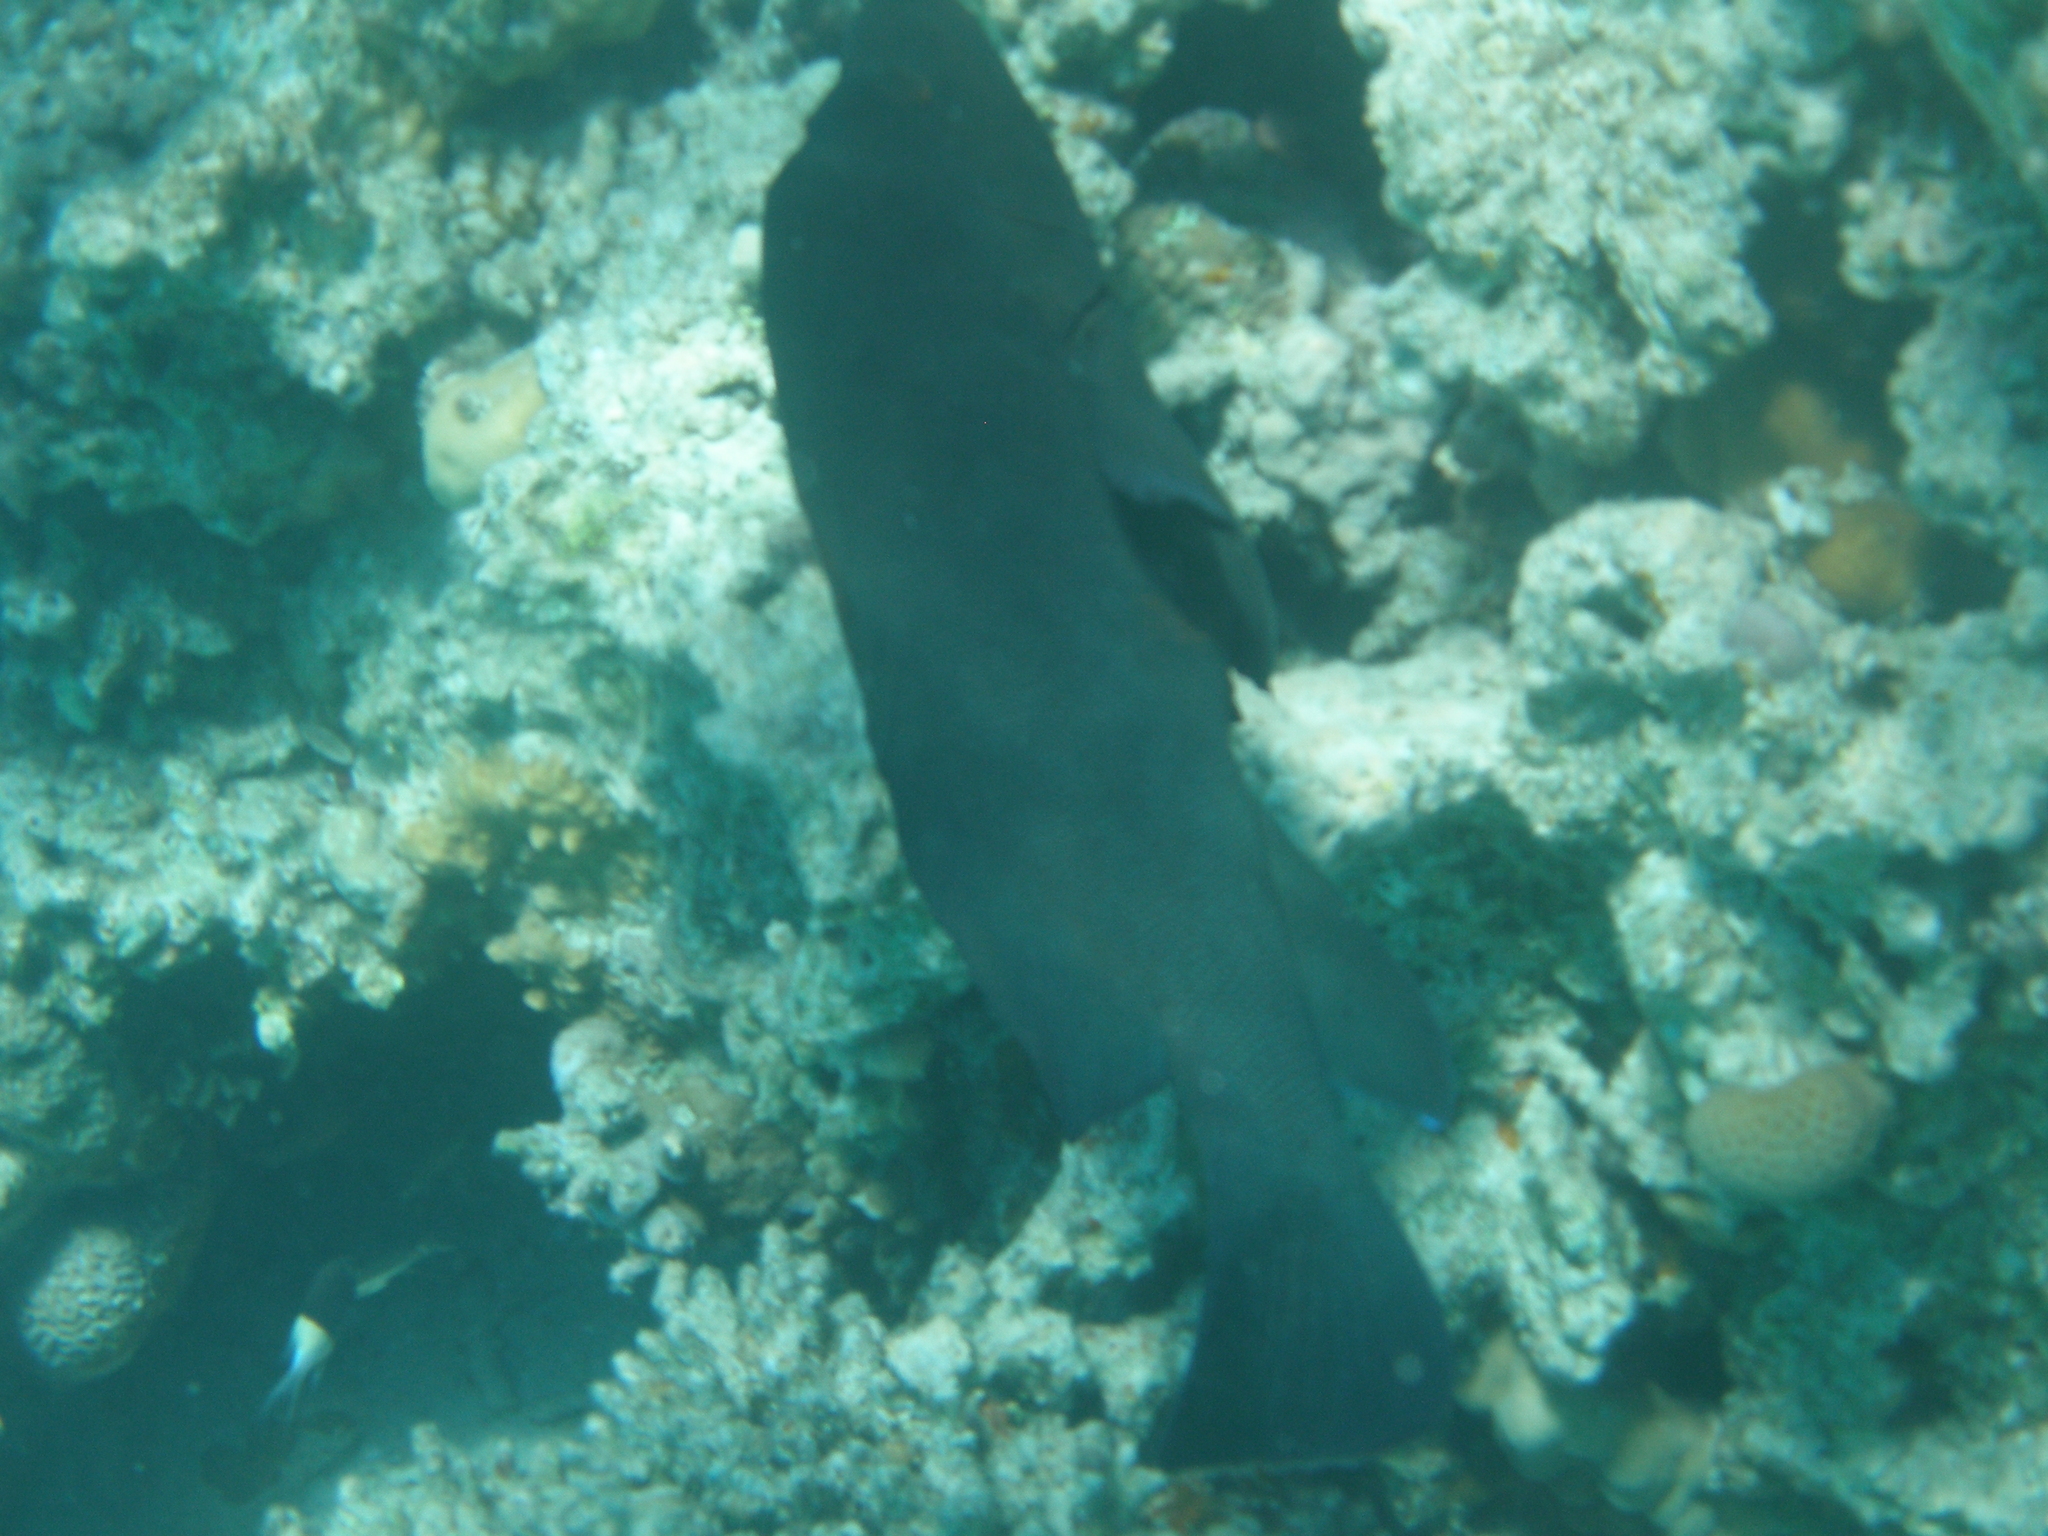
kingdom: Animalia
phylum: Chordata
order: Perciformes
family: Serranidae
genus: Aethaloperca
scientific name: Aethaloperca rogaa
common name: Redmouth grouper
